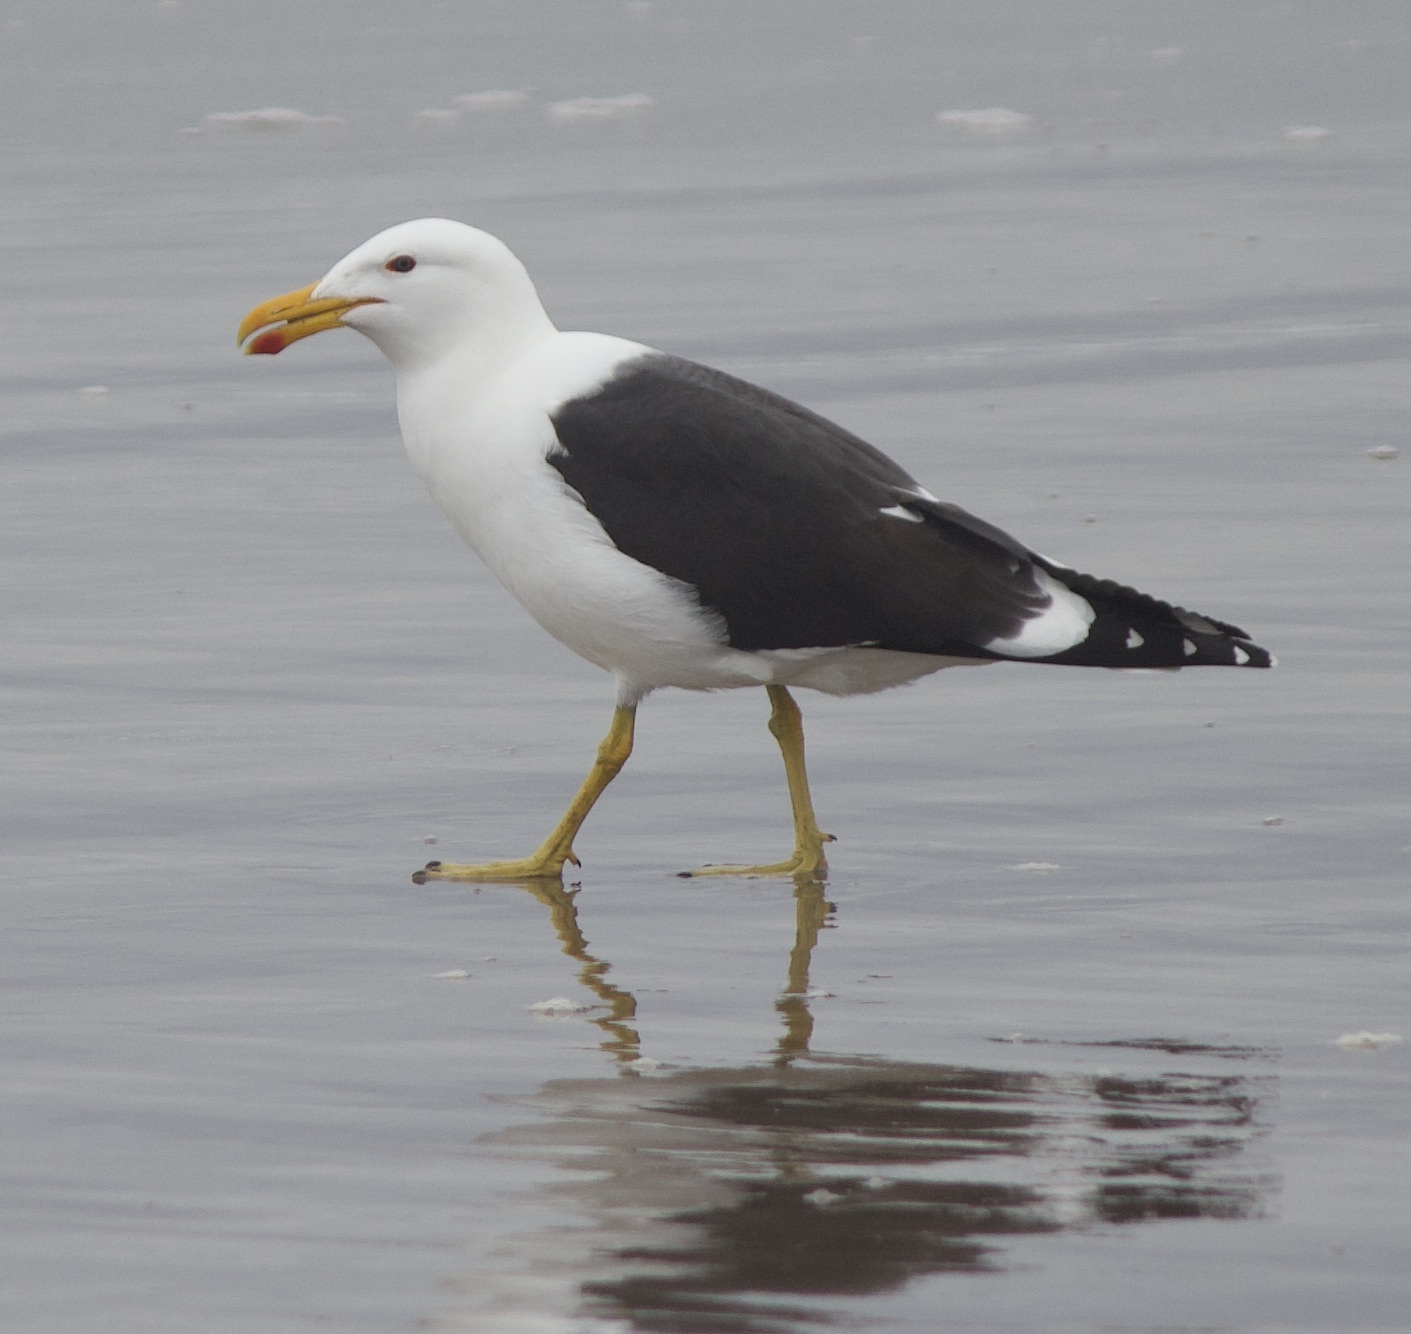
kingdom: Animalia
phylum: Chordata
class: Aves
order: Charadriiformes
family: Laridae
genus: Larus
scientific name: Larus dominicanus
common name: Kelp gull
